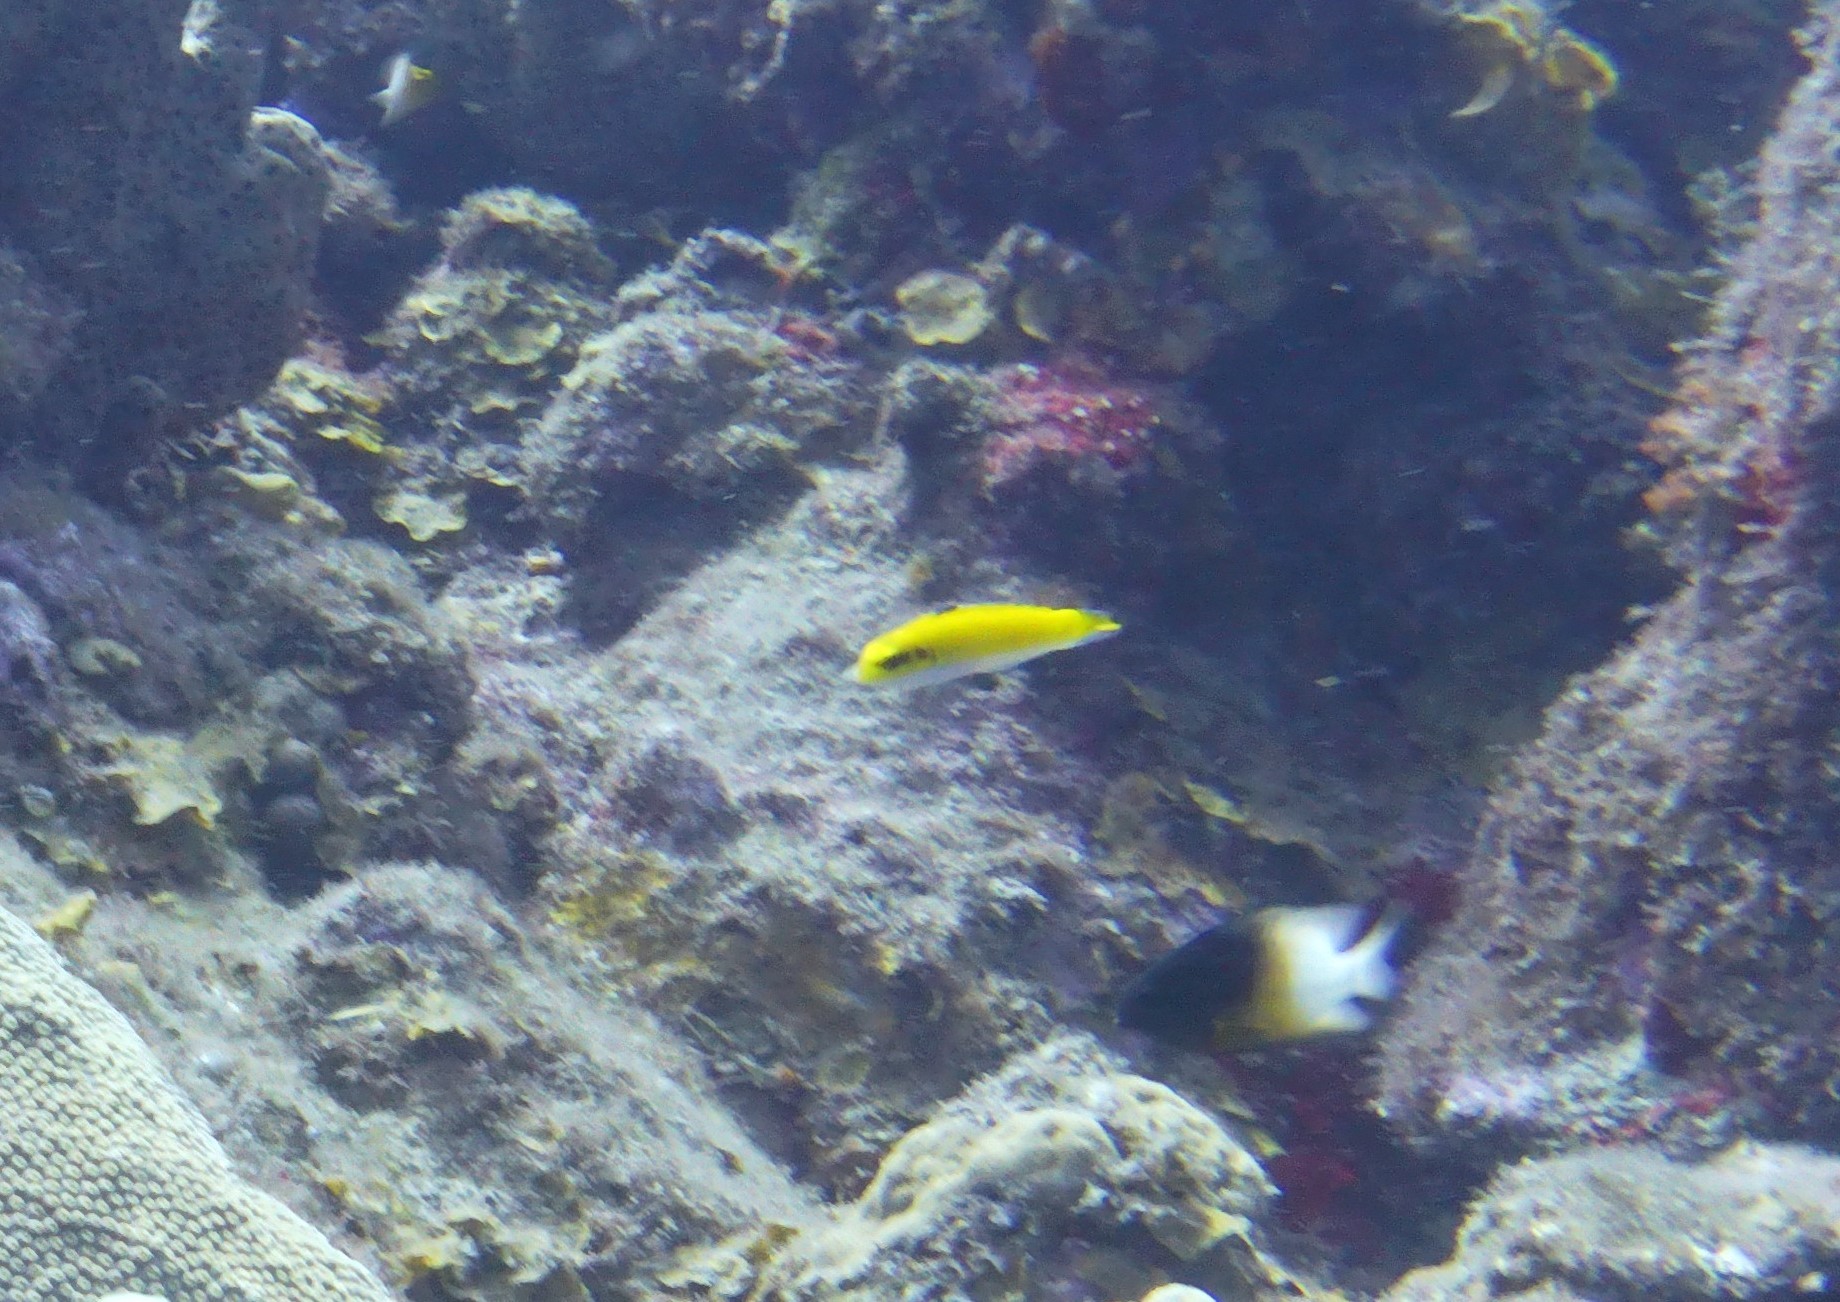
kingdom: Animalia
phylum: Chordata
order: Perciformes
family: Labridae
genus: Thalassoma
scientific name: Thalassoma bifasciatum
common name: Bluehead wrasse
